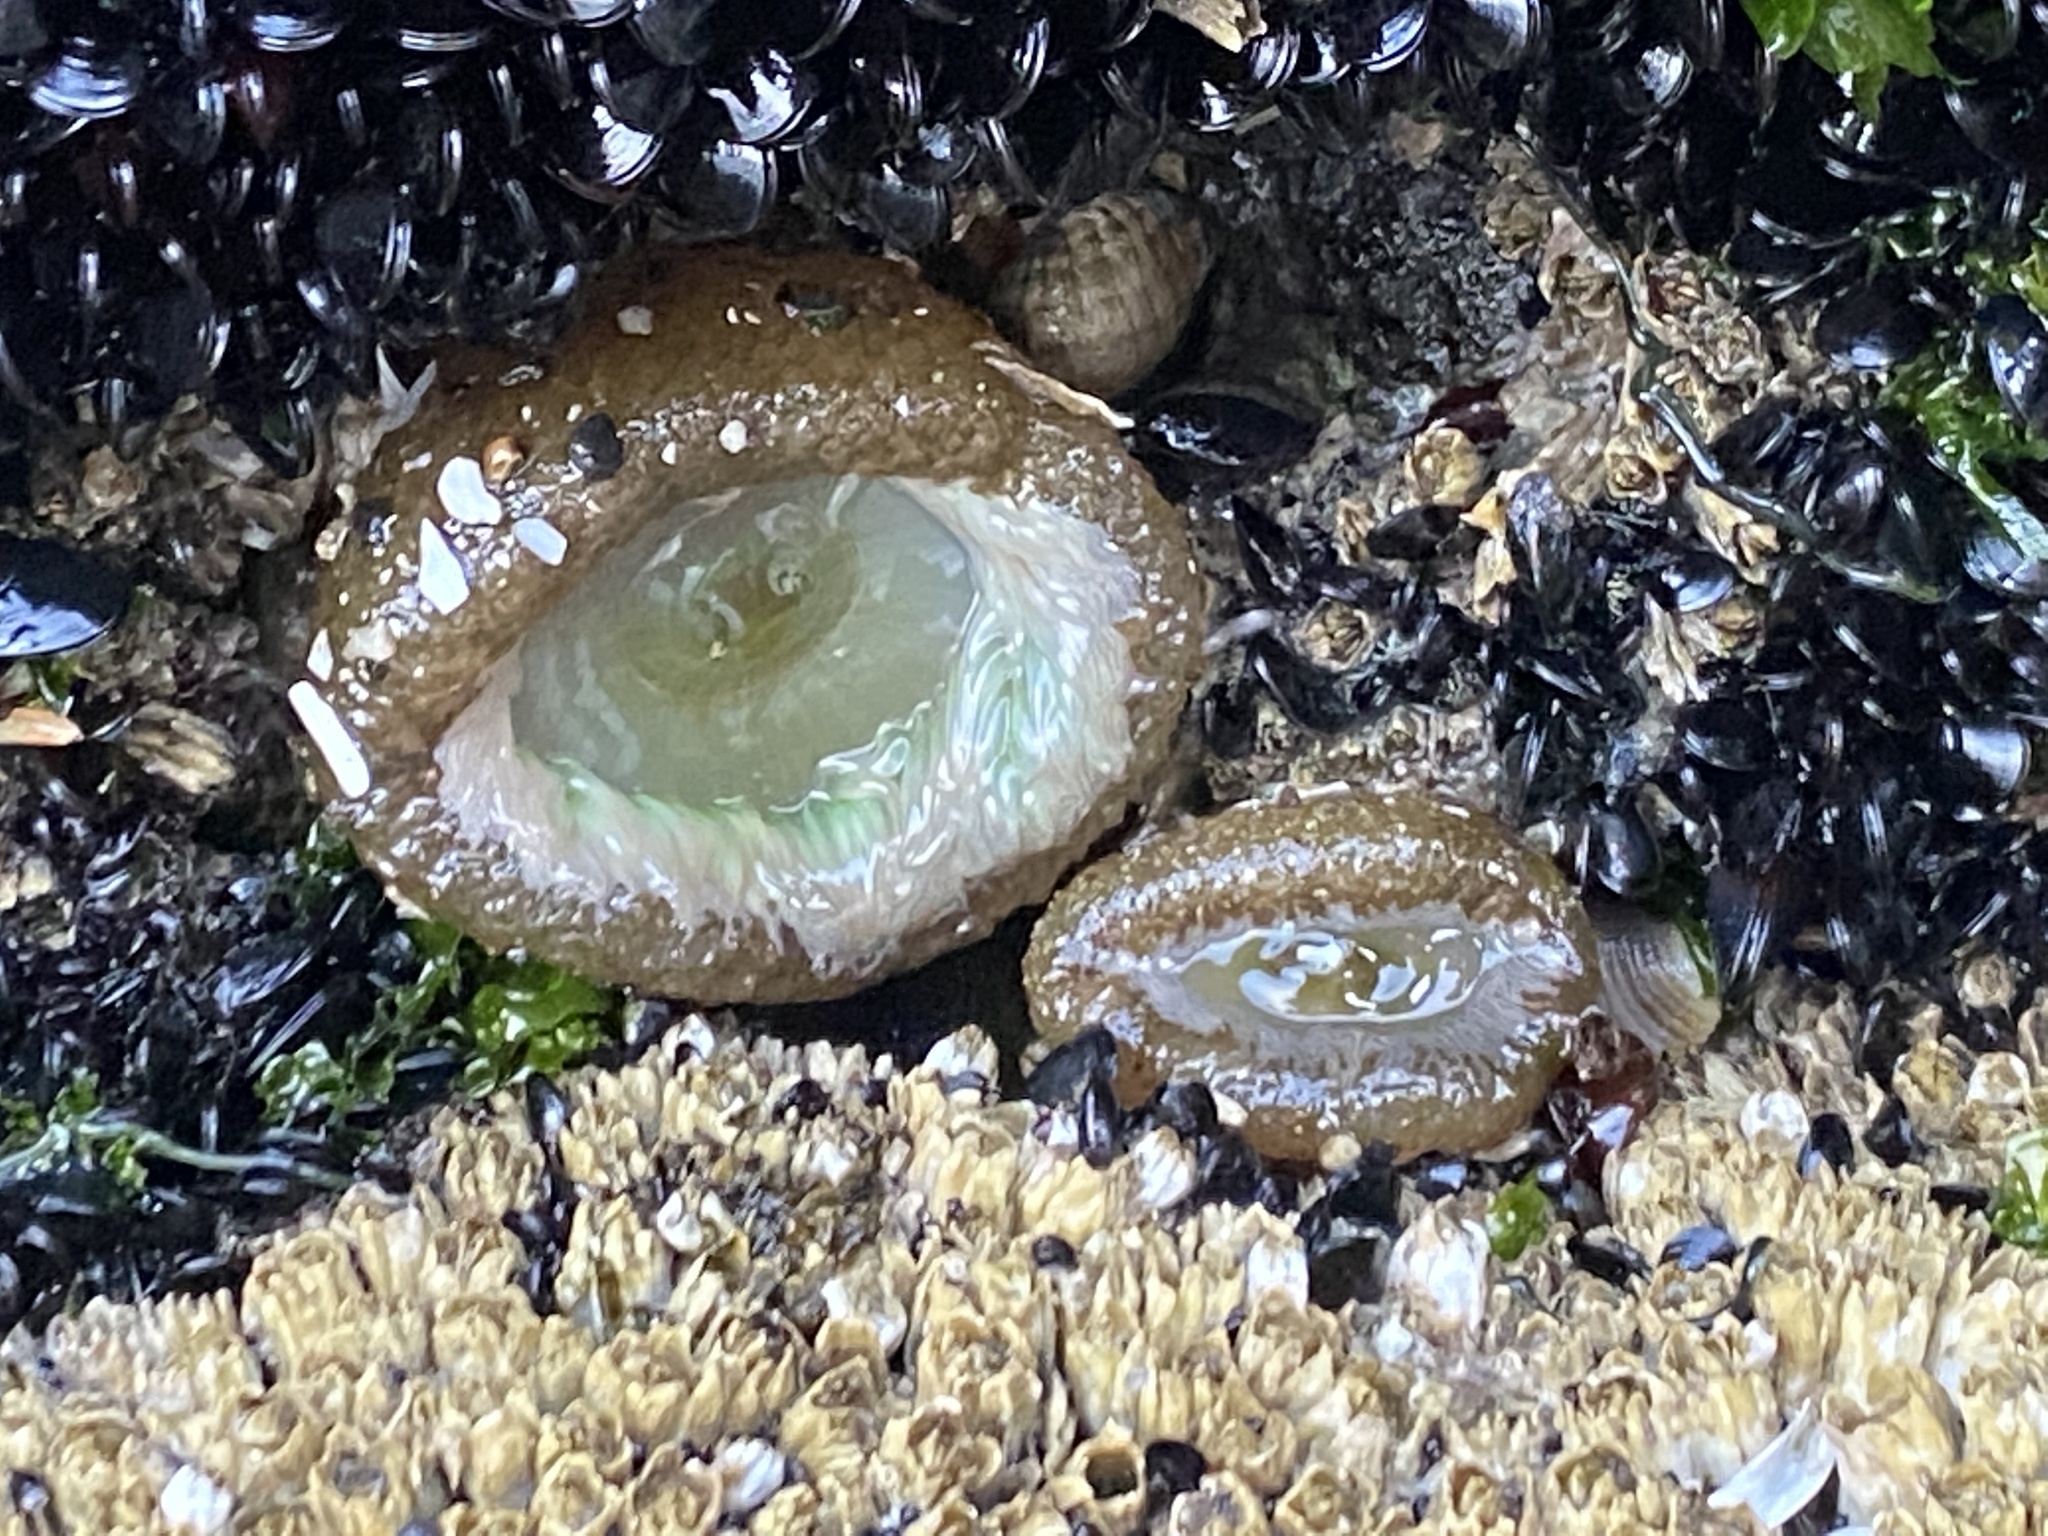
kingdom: Animalia
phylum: Cnidaria
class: Anthozoa
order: Actiniaria
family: Actiniidae
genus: Anthopleura
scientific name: Anthopleura xanthogrammica
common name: Giant green anemone
